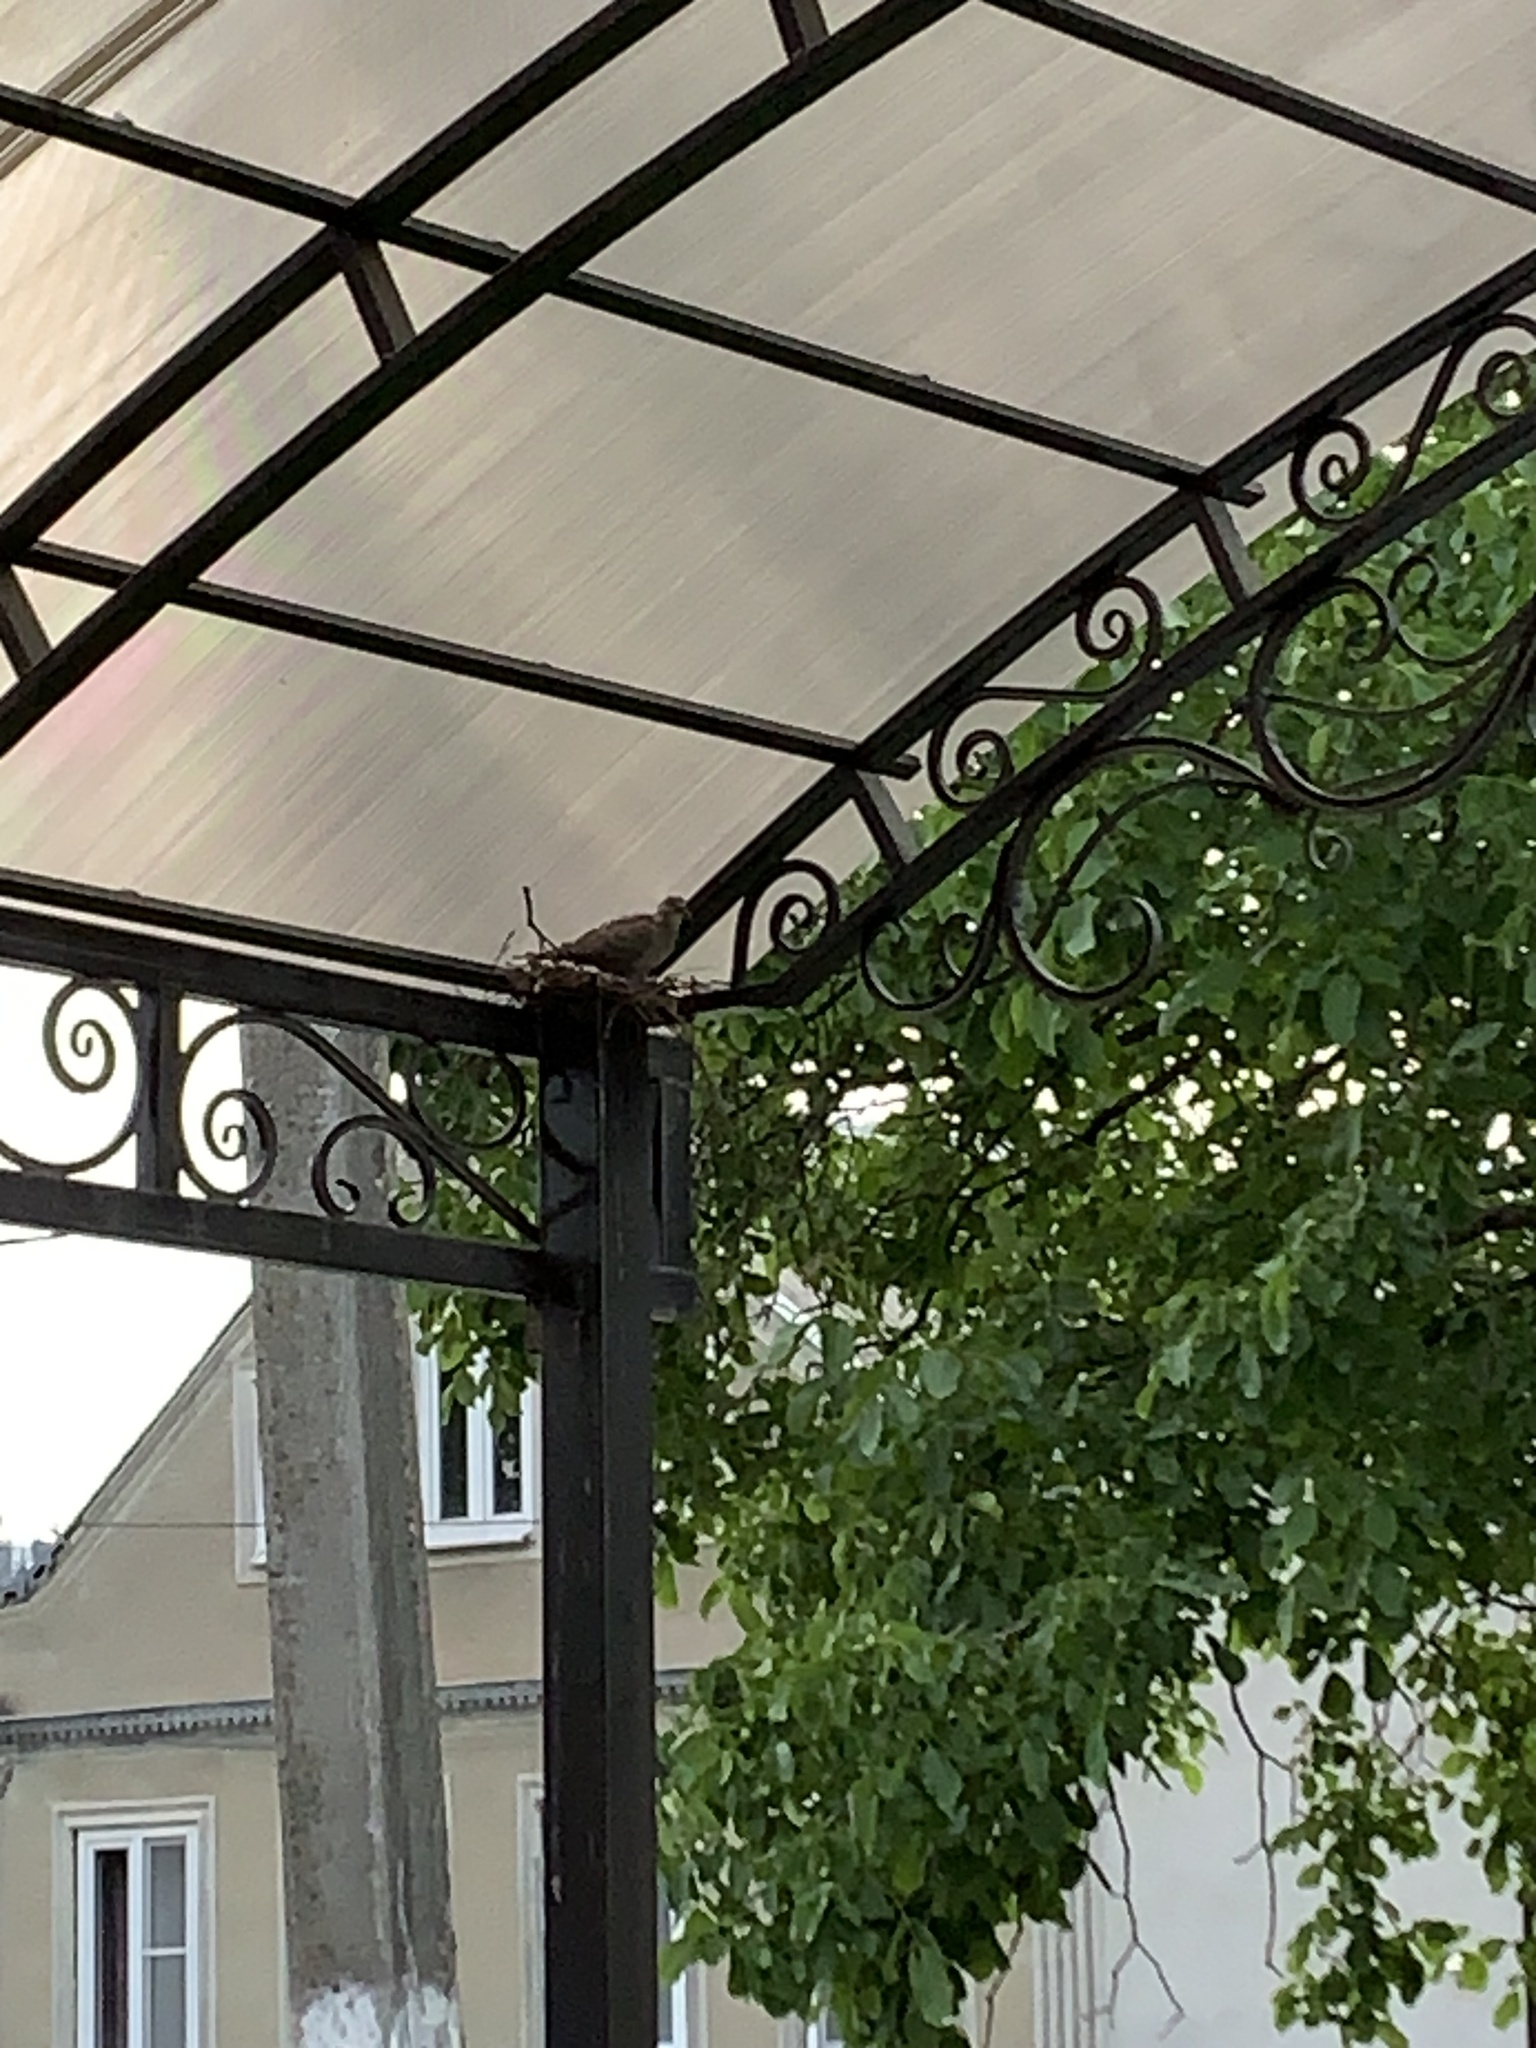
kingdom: Animalia
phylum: Chordata
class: Aves
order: Columbiformes
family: Columbidae
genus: Streptopelia
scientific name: Streptopelia decaocto
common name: Eurasian collared dove
